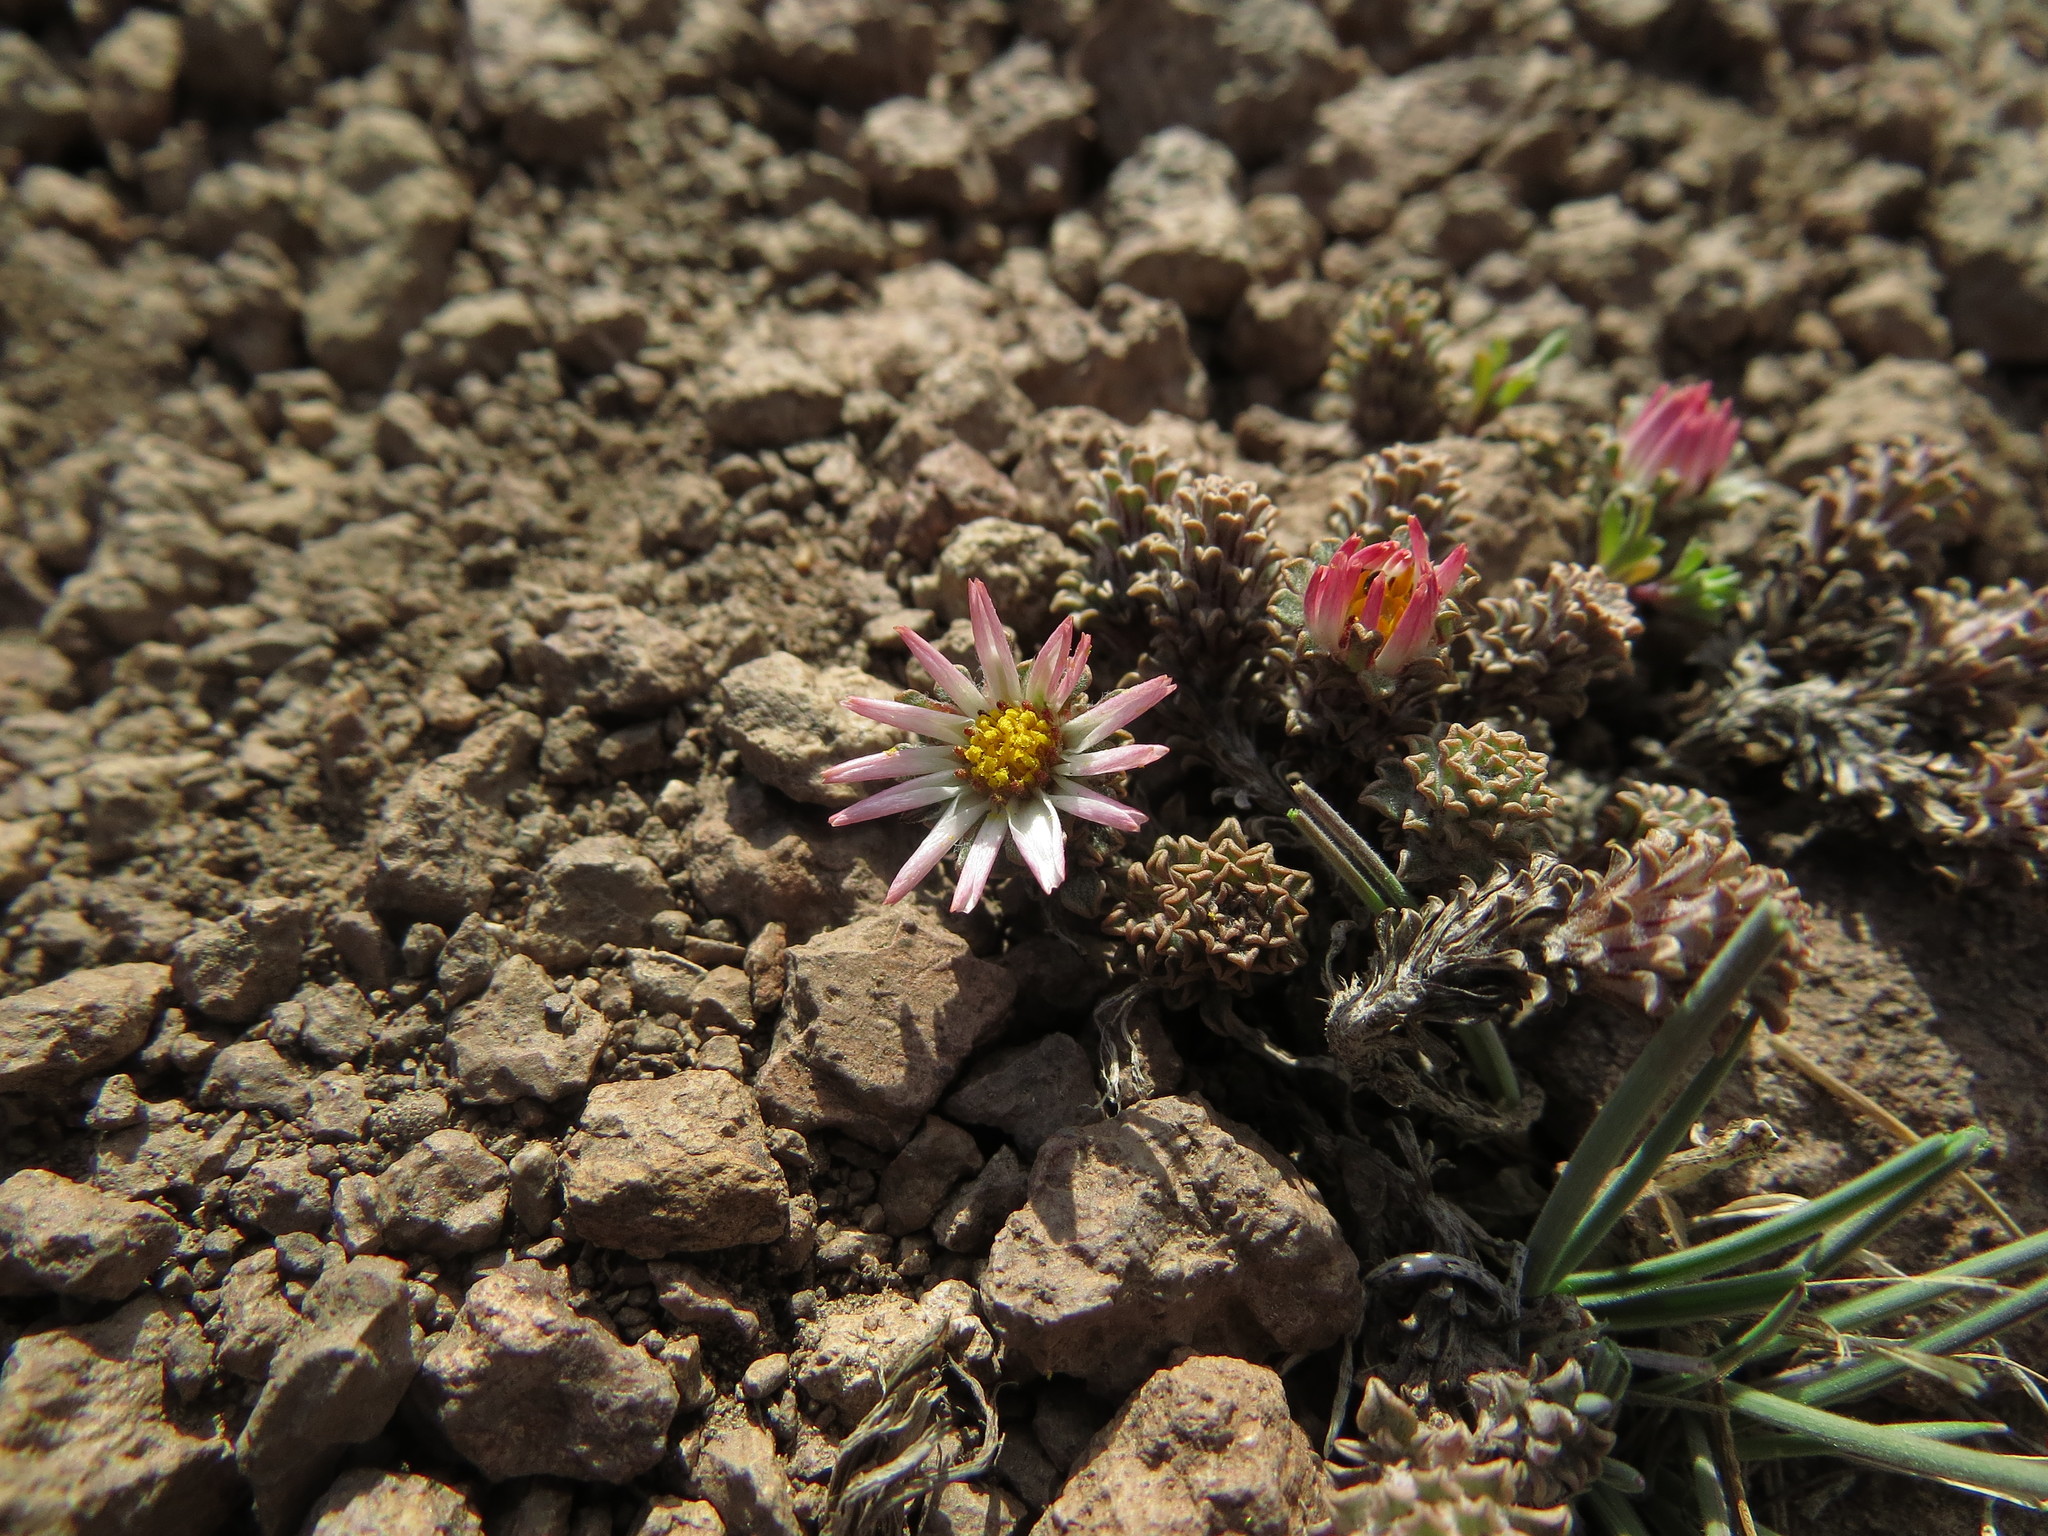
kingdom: Plantae
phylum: Tracheophyta
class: Magnoliopsida
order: Asterales
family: Asteraceae
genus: Oriastrum
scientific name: Oriastrum lycopodioides
